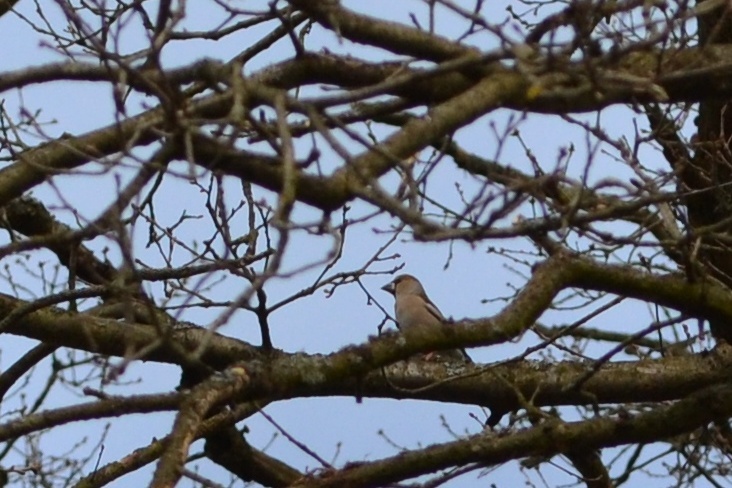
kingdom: Animalia
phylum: Chordata
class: Aves
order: Passeriformes
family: Fringillidae
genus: Coccothraustes
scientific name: Coccothraustes coccothraustes
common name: Hawfinch
